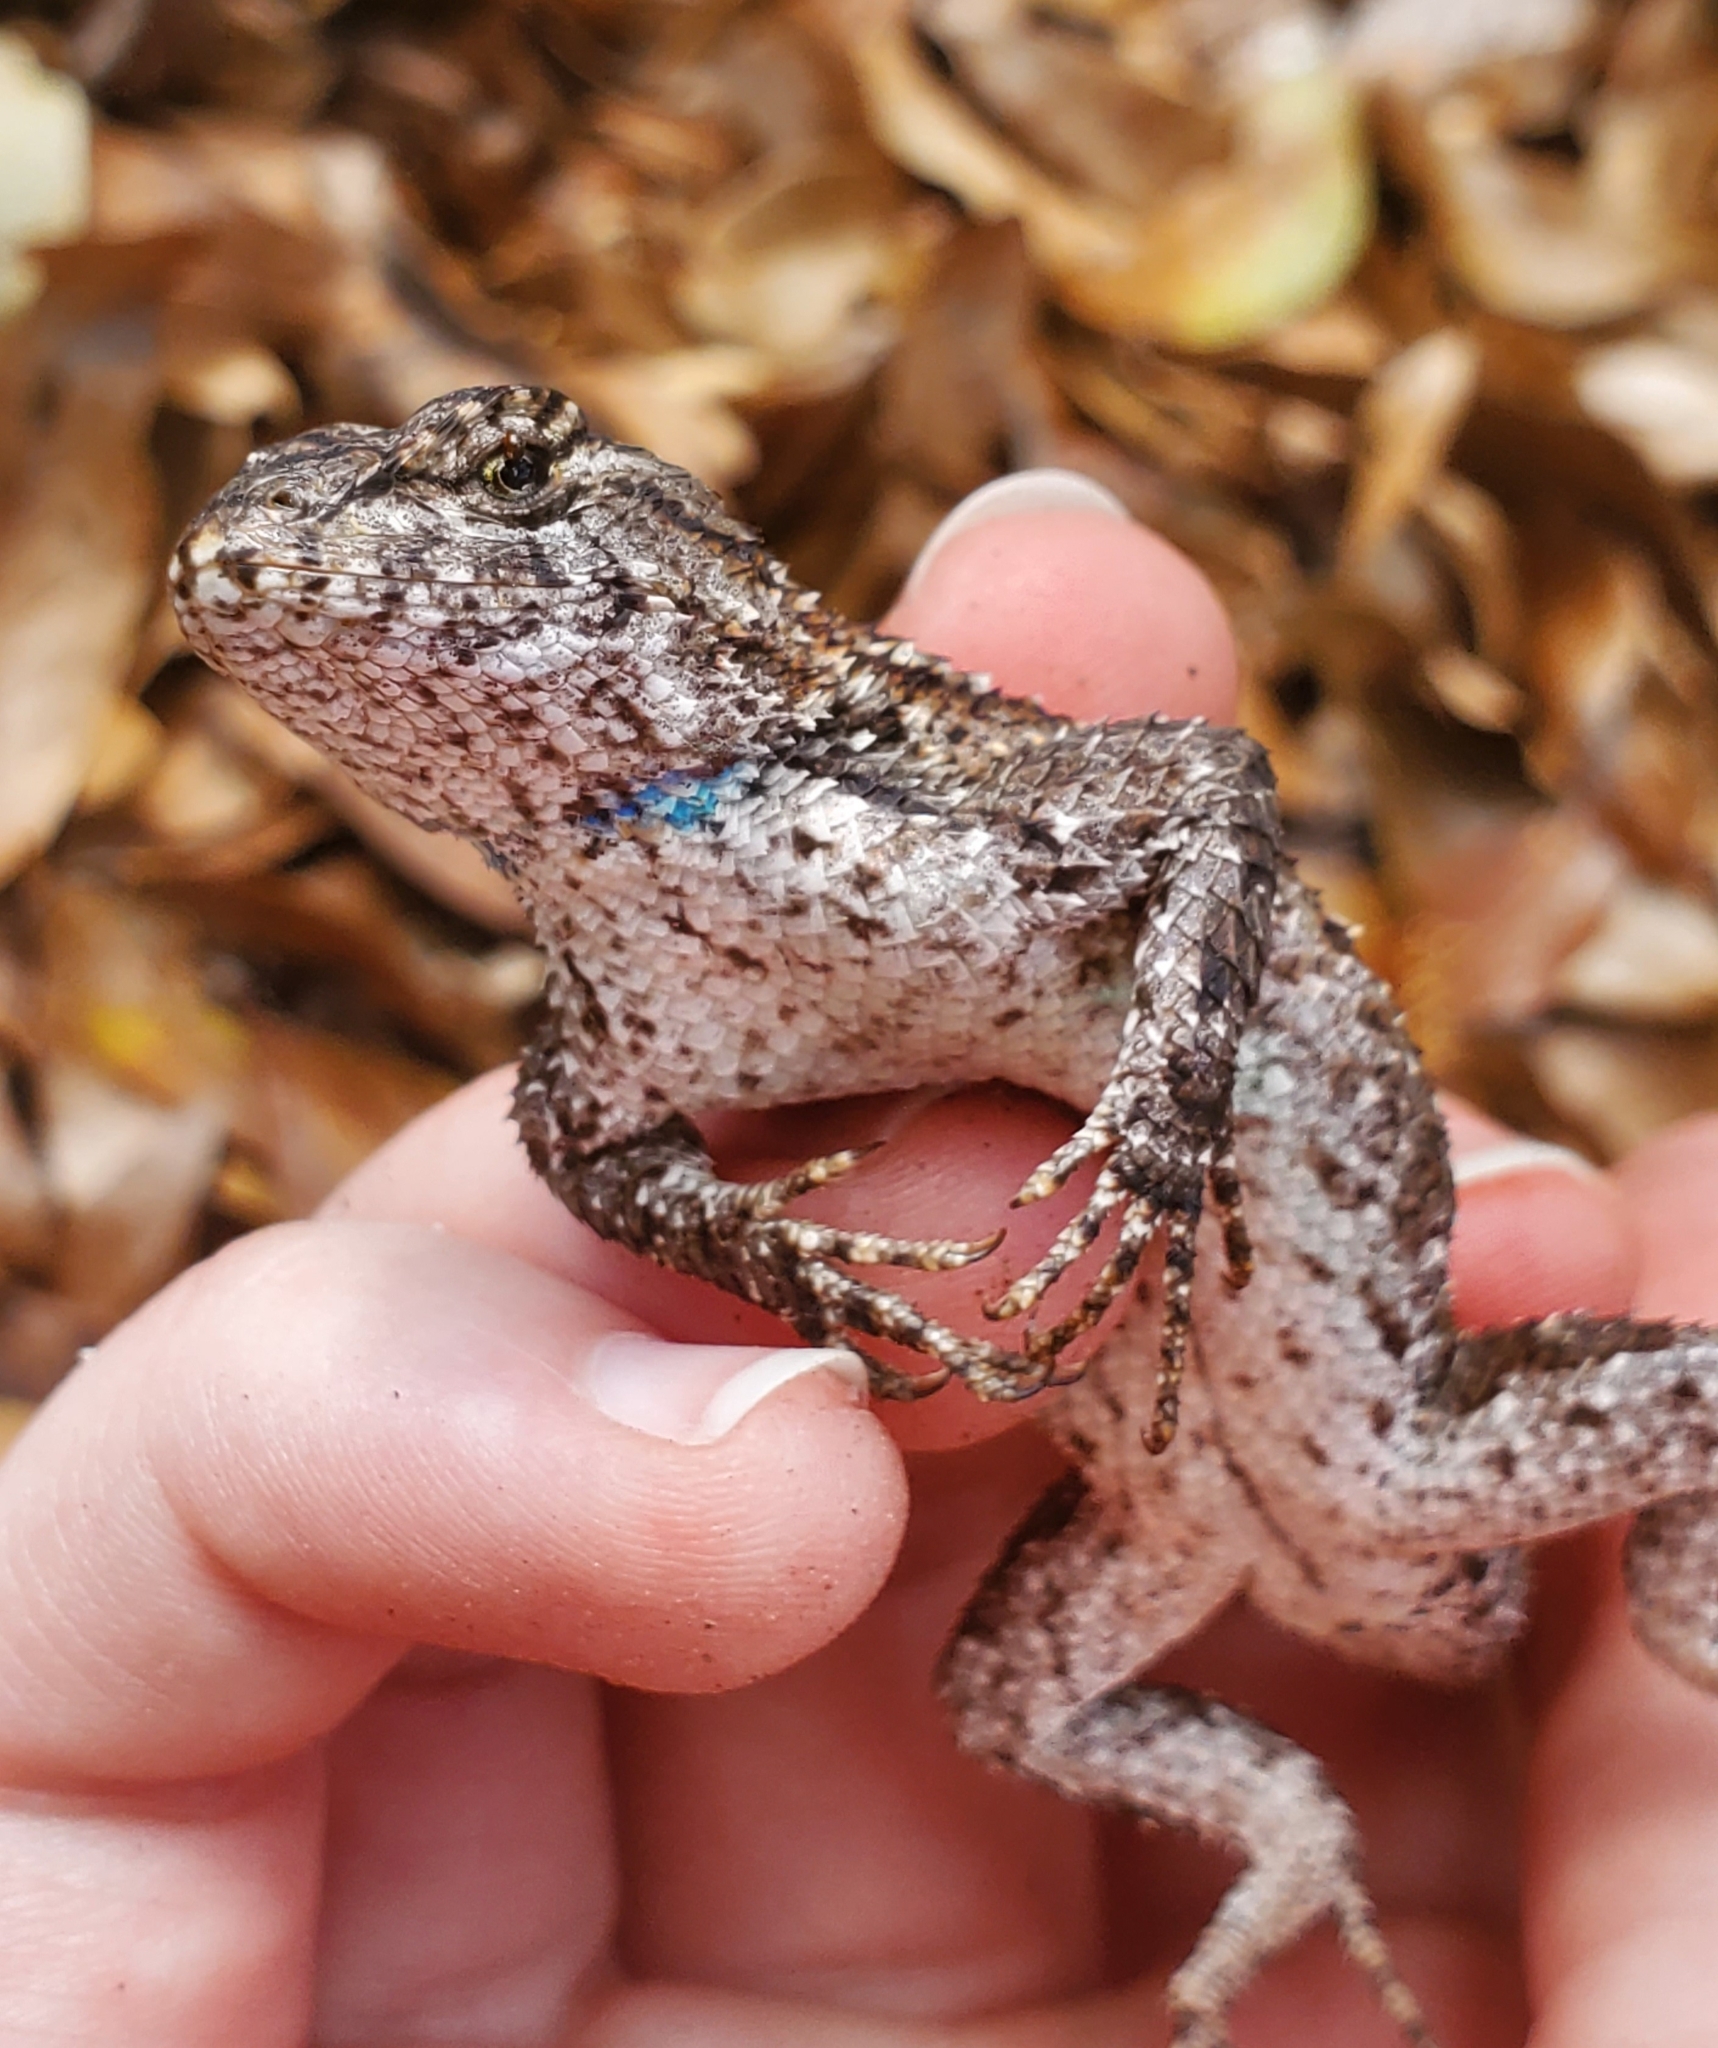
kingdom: Animalia
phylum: Chordata
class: Squamata
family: Phrynosomatidae
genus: Sceloporus
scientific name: Sceloporus undulatus
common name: Eastern fence lizard
